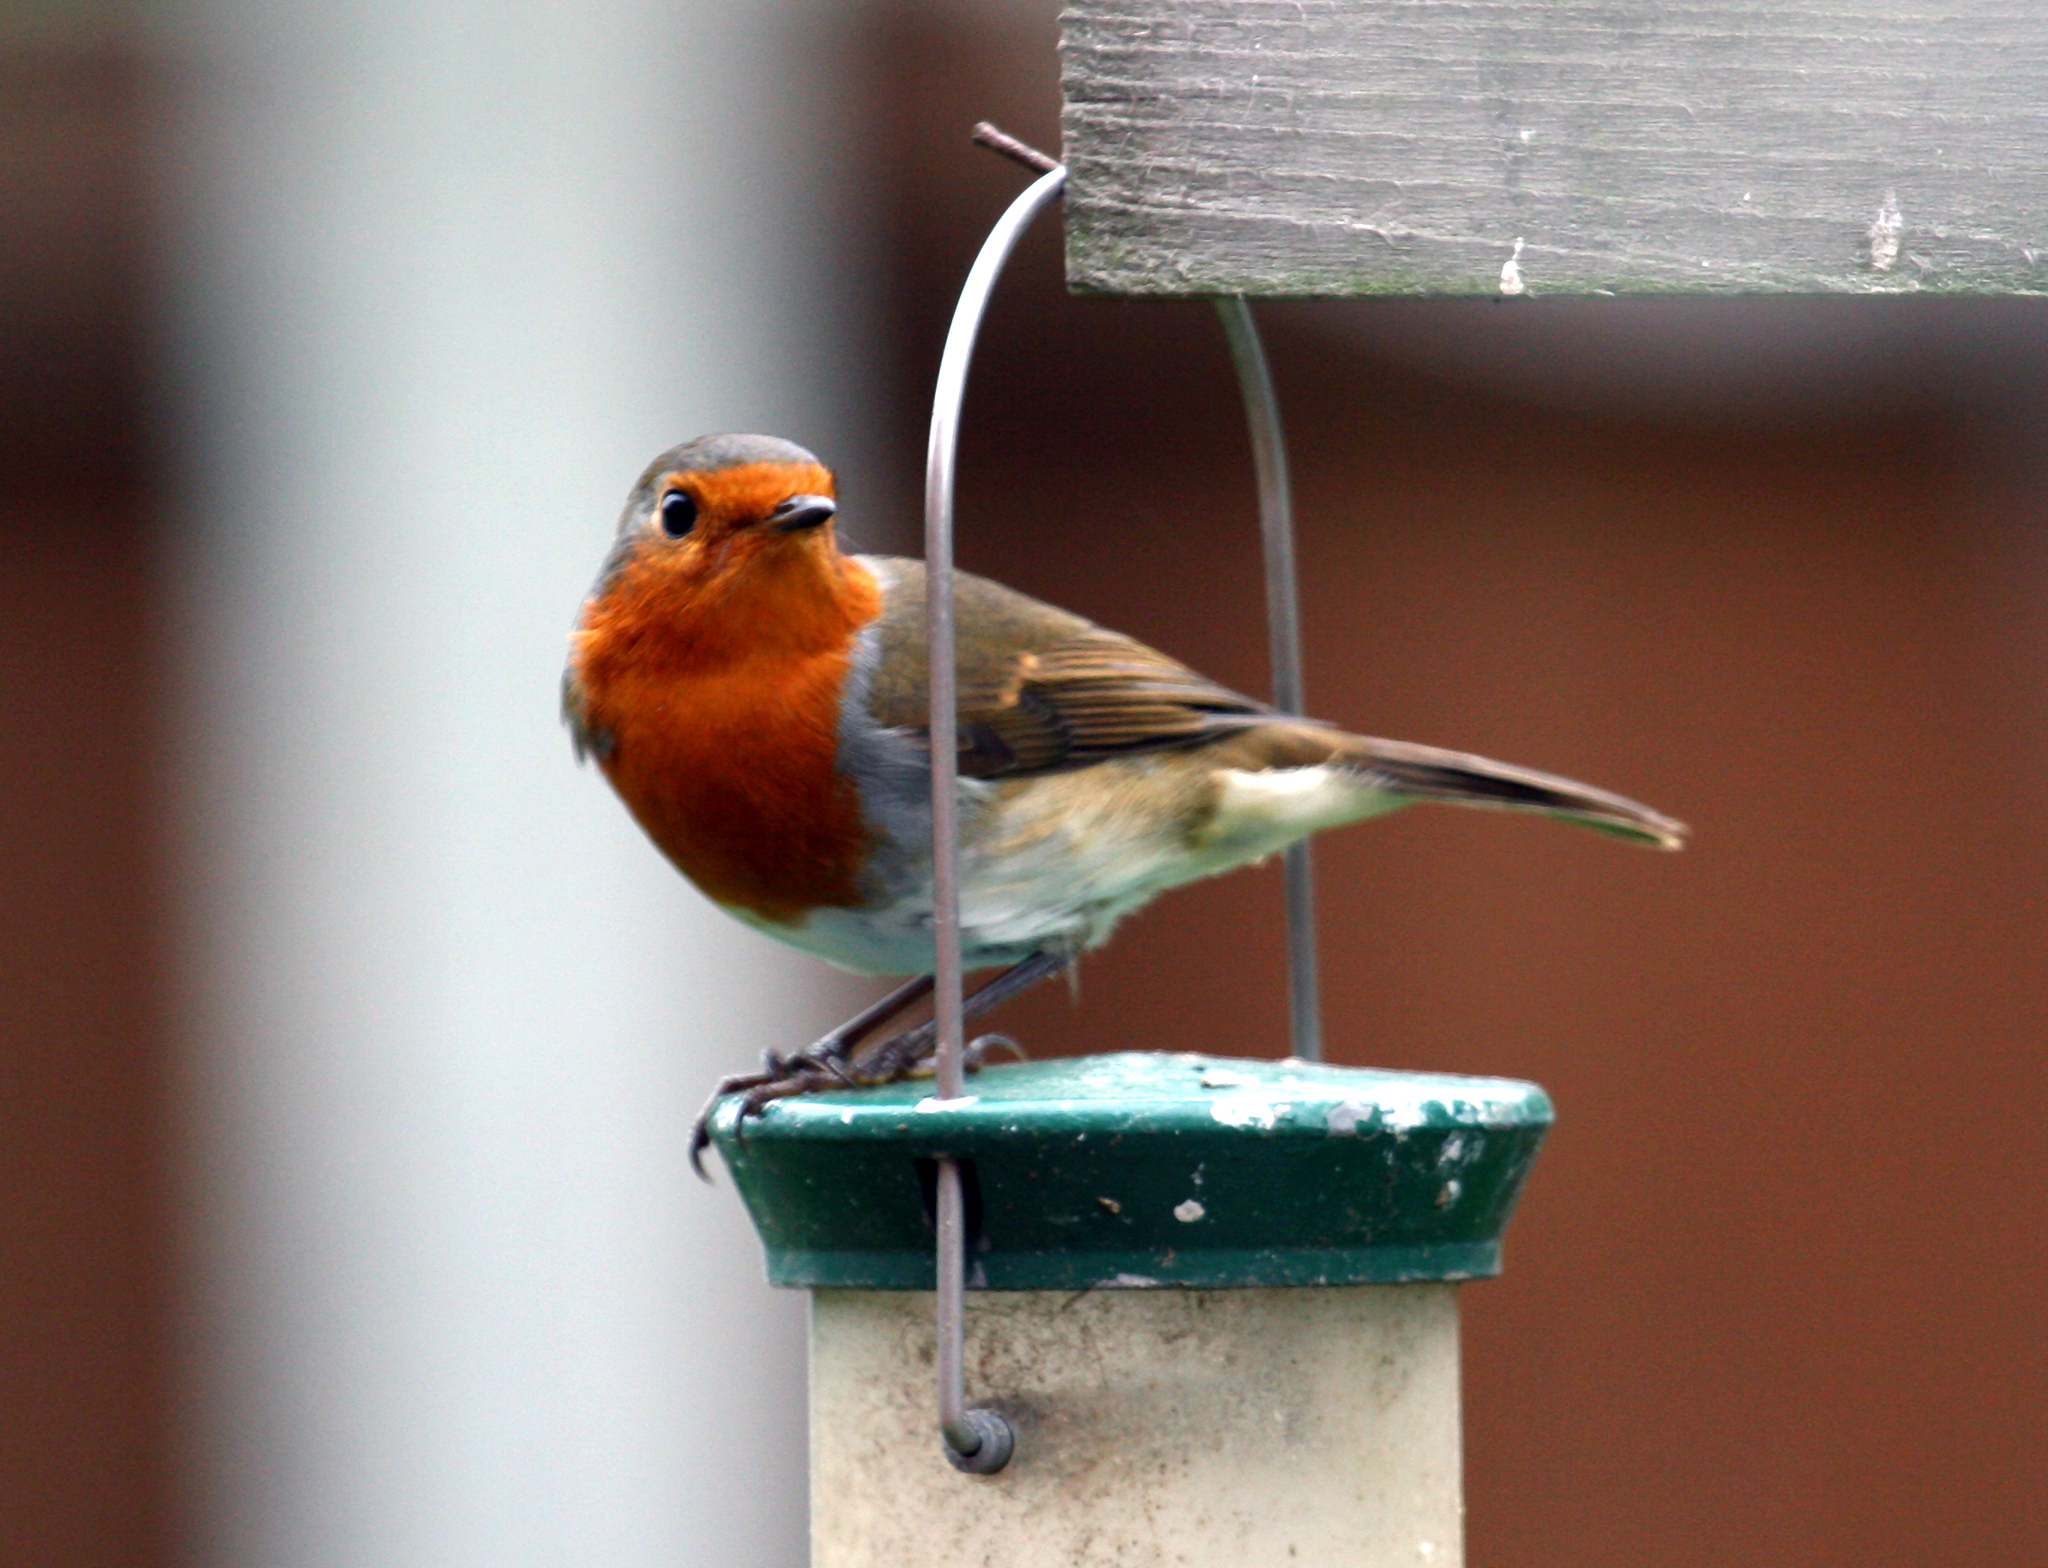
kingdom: Animalia
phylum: Chordata
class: Aves
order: Passeriformes
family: Muscicapidae
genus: Erithacus
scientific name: Erithacus rubecula
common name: European robin
